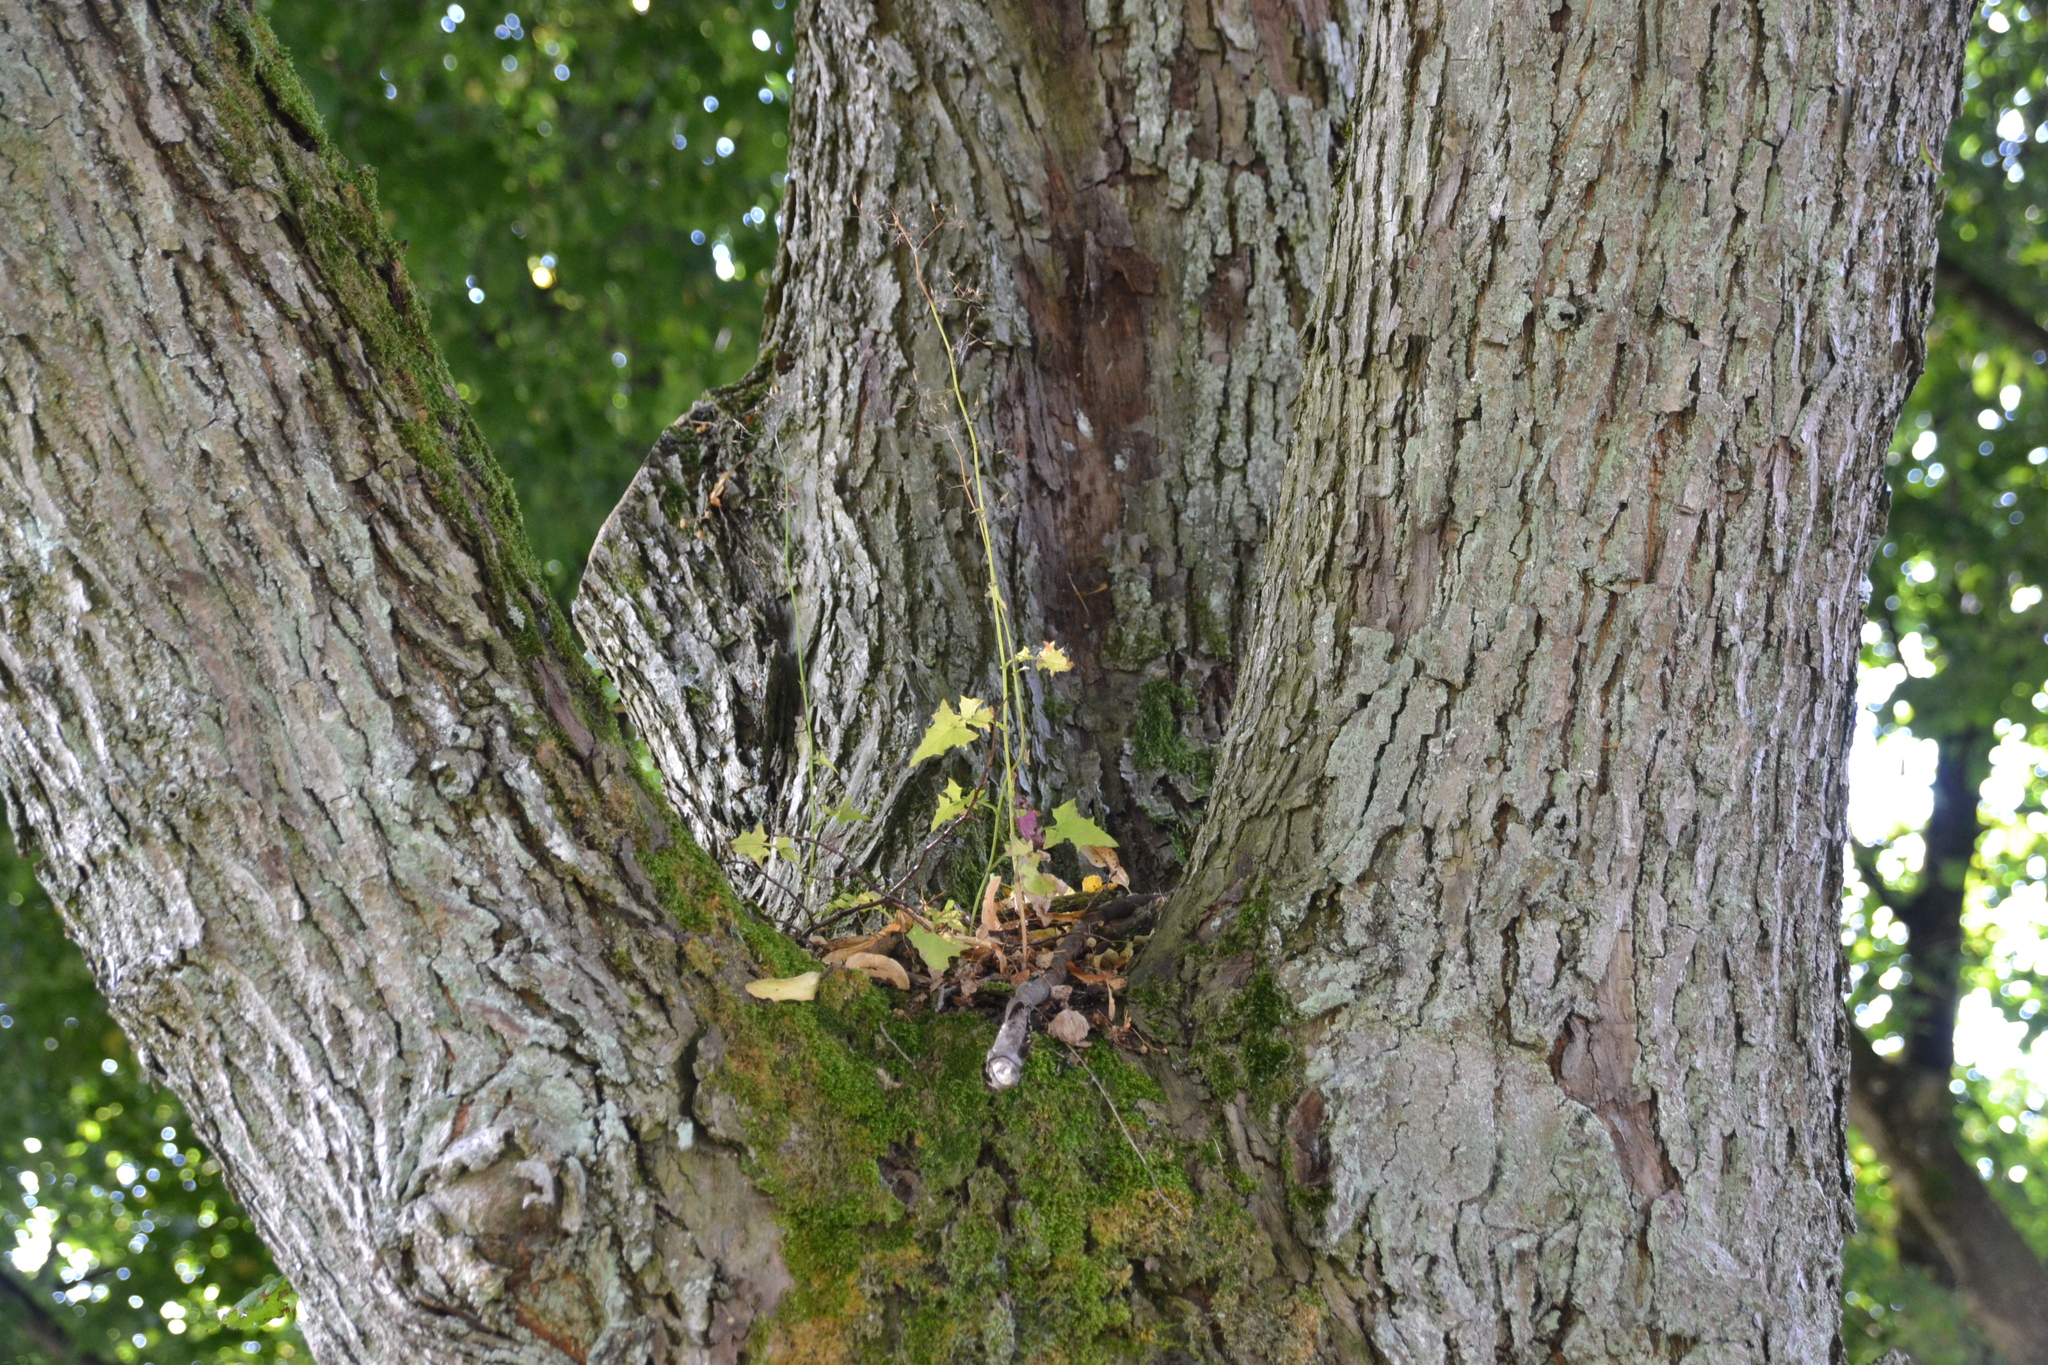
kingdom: Plantae
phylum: Tracheophyta
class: Magnoliopsida
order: Asterales
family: Asteraceae
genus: Mycelis
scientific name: Mycelis muralis
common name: Wall lettuce
